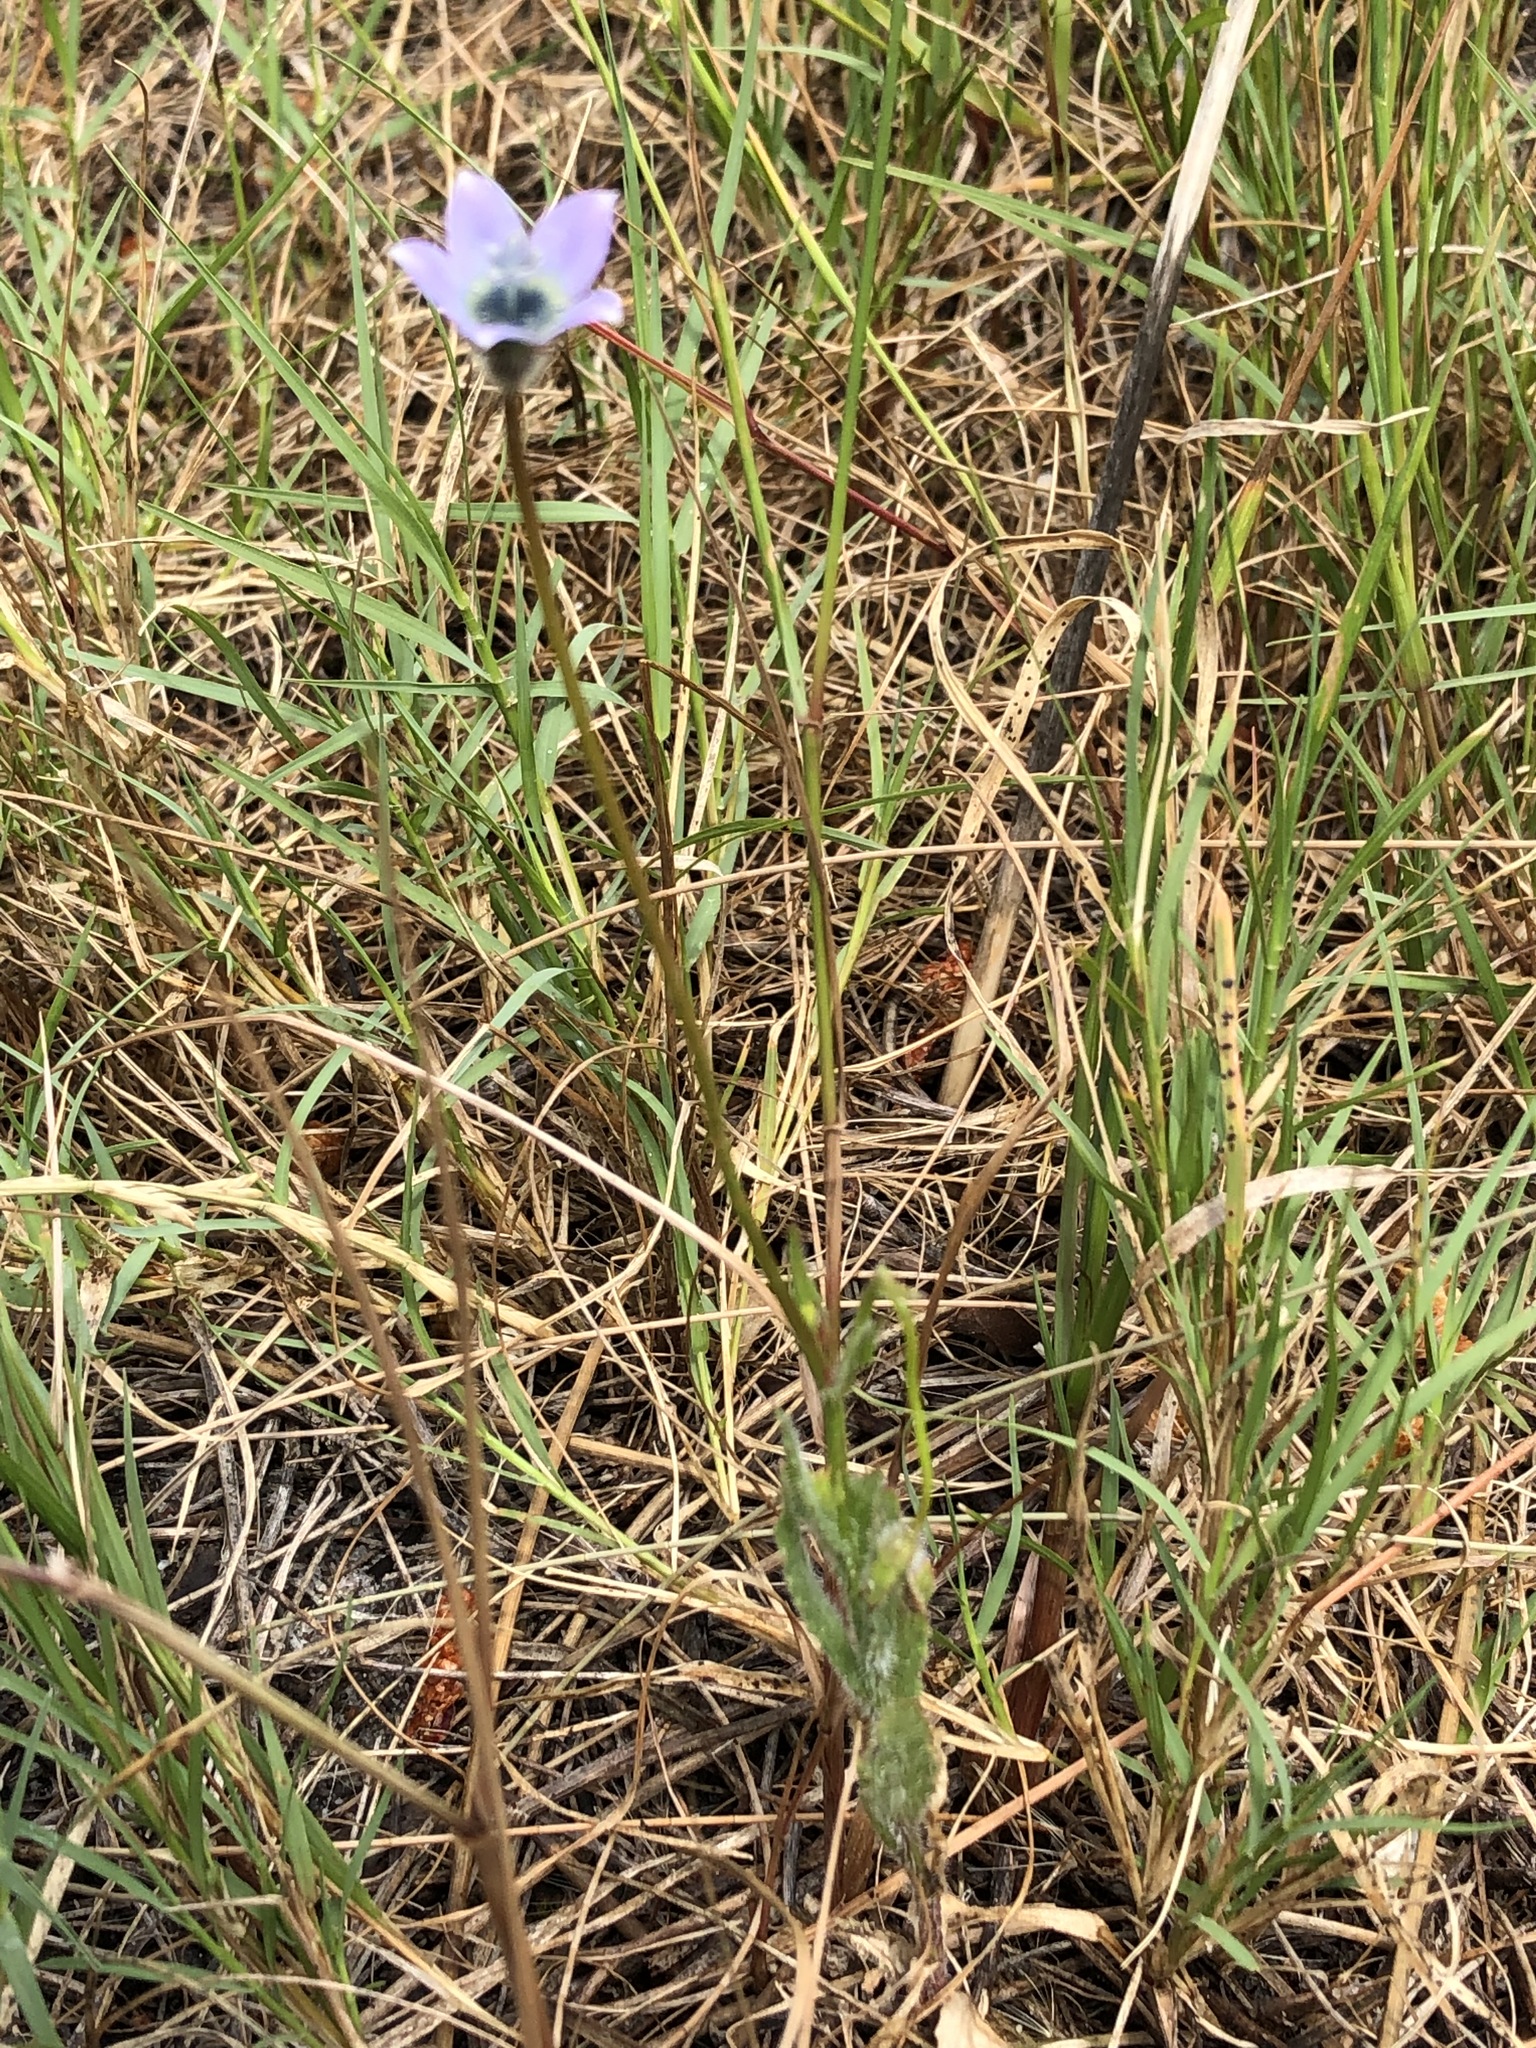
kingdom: Plantae
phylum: Tracheophyta
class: Magnoliopsida
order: Asterales
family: Campanulaceae
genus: Wahlenbergia
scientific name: Wahlenbergia capensis
